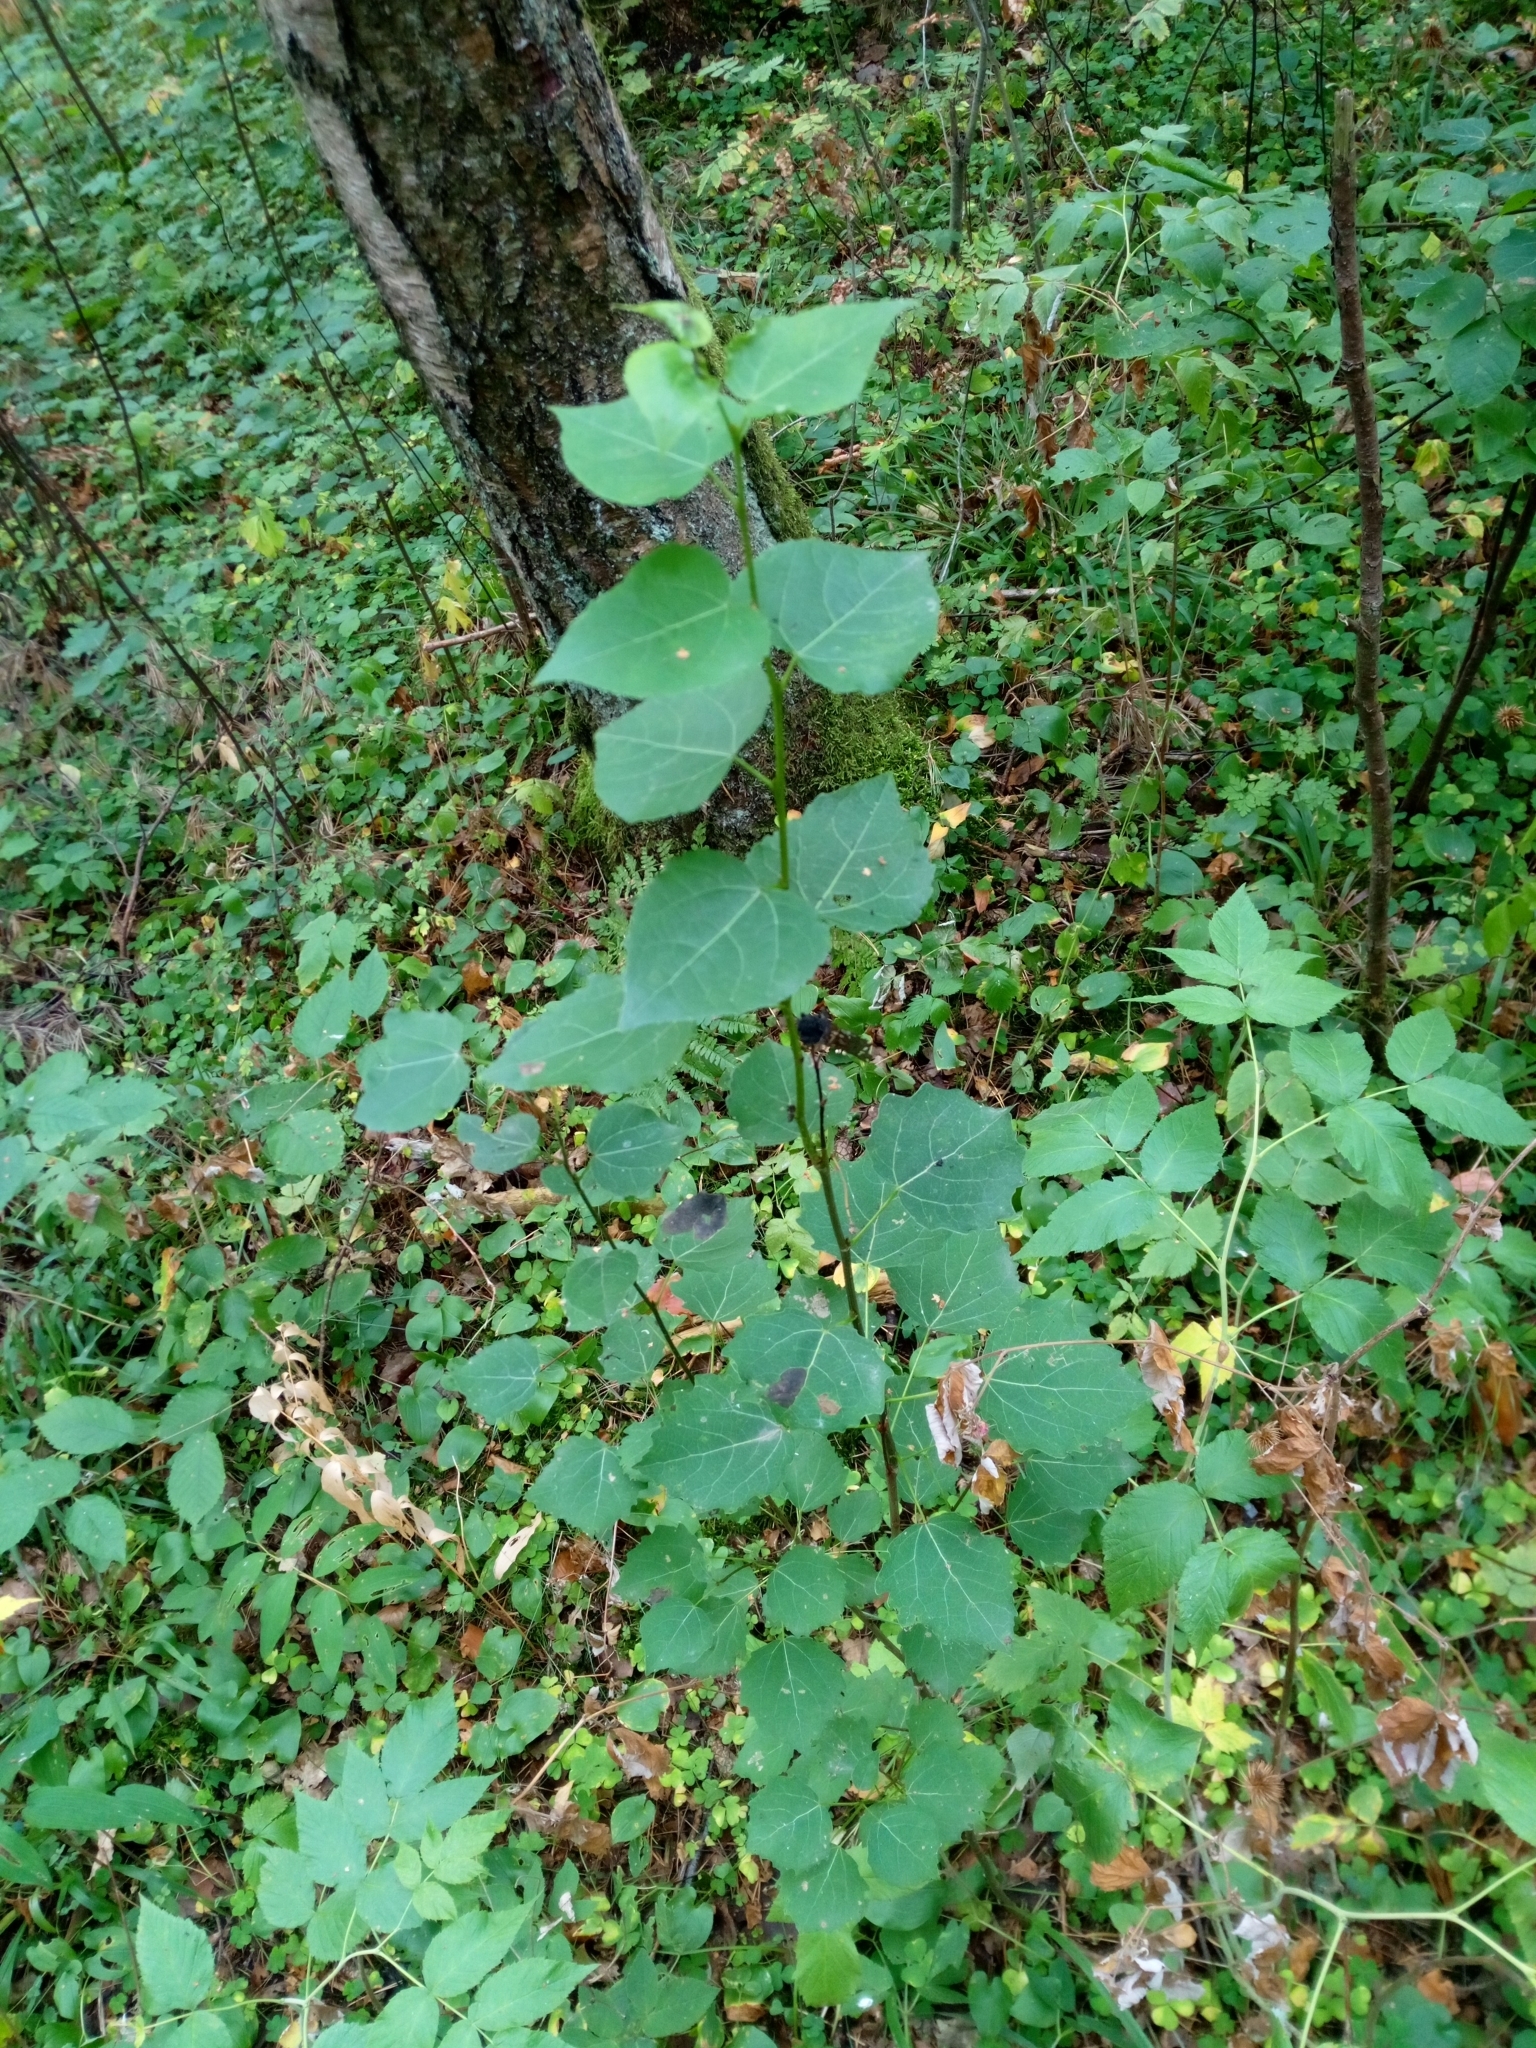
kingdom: Plantae
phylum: Tracheophyta
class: Magnoliopsida
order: Malpighiales
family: Salicaceae
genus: Populus
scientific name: Populus tremula
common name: European aspen
